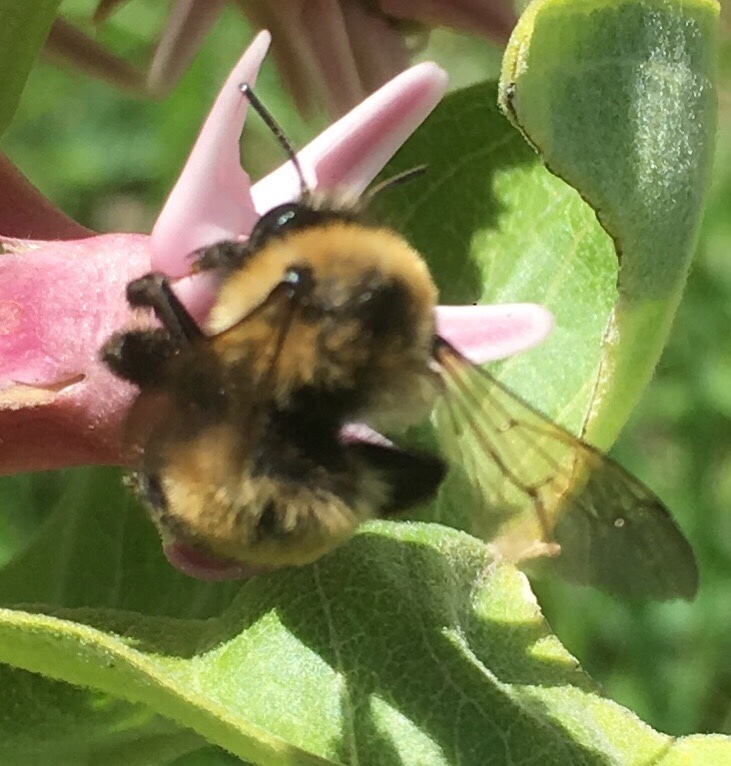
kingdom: Animalia
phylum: Arthropoda
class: Insecta
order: Hymenoptera
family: Apidae
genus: Anthophora
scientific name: Anthophora bomboides
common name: Bumble-bee-mimic digger bee
